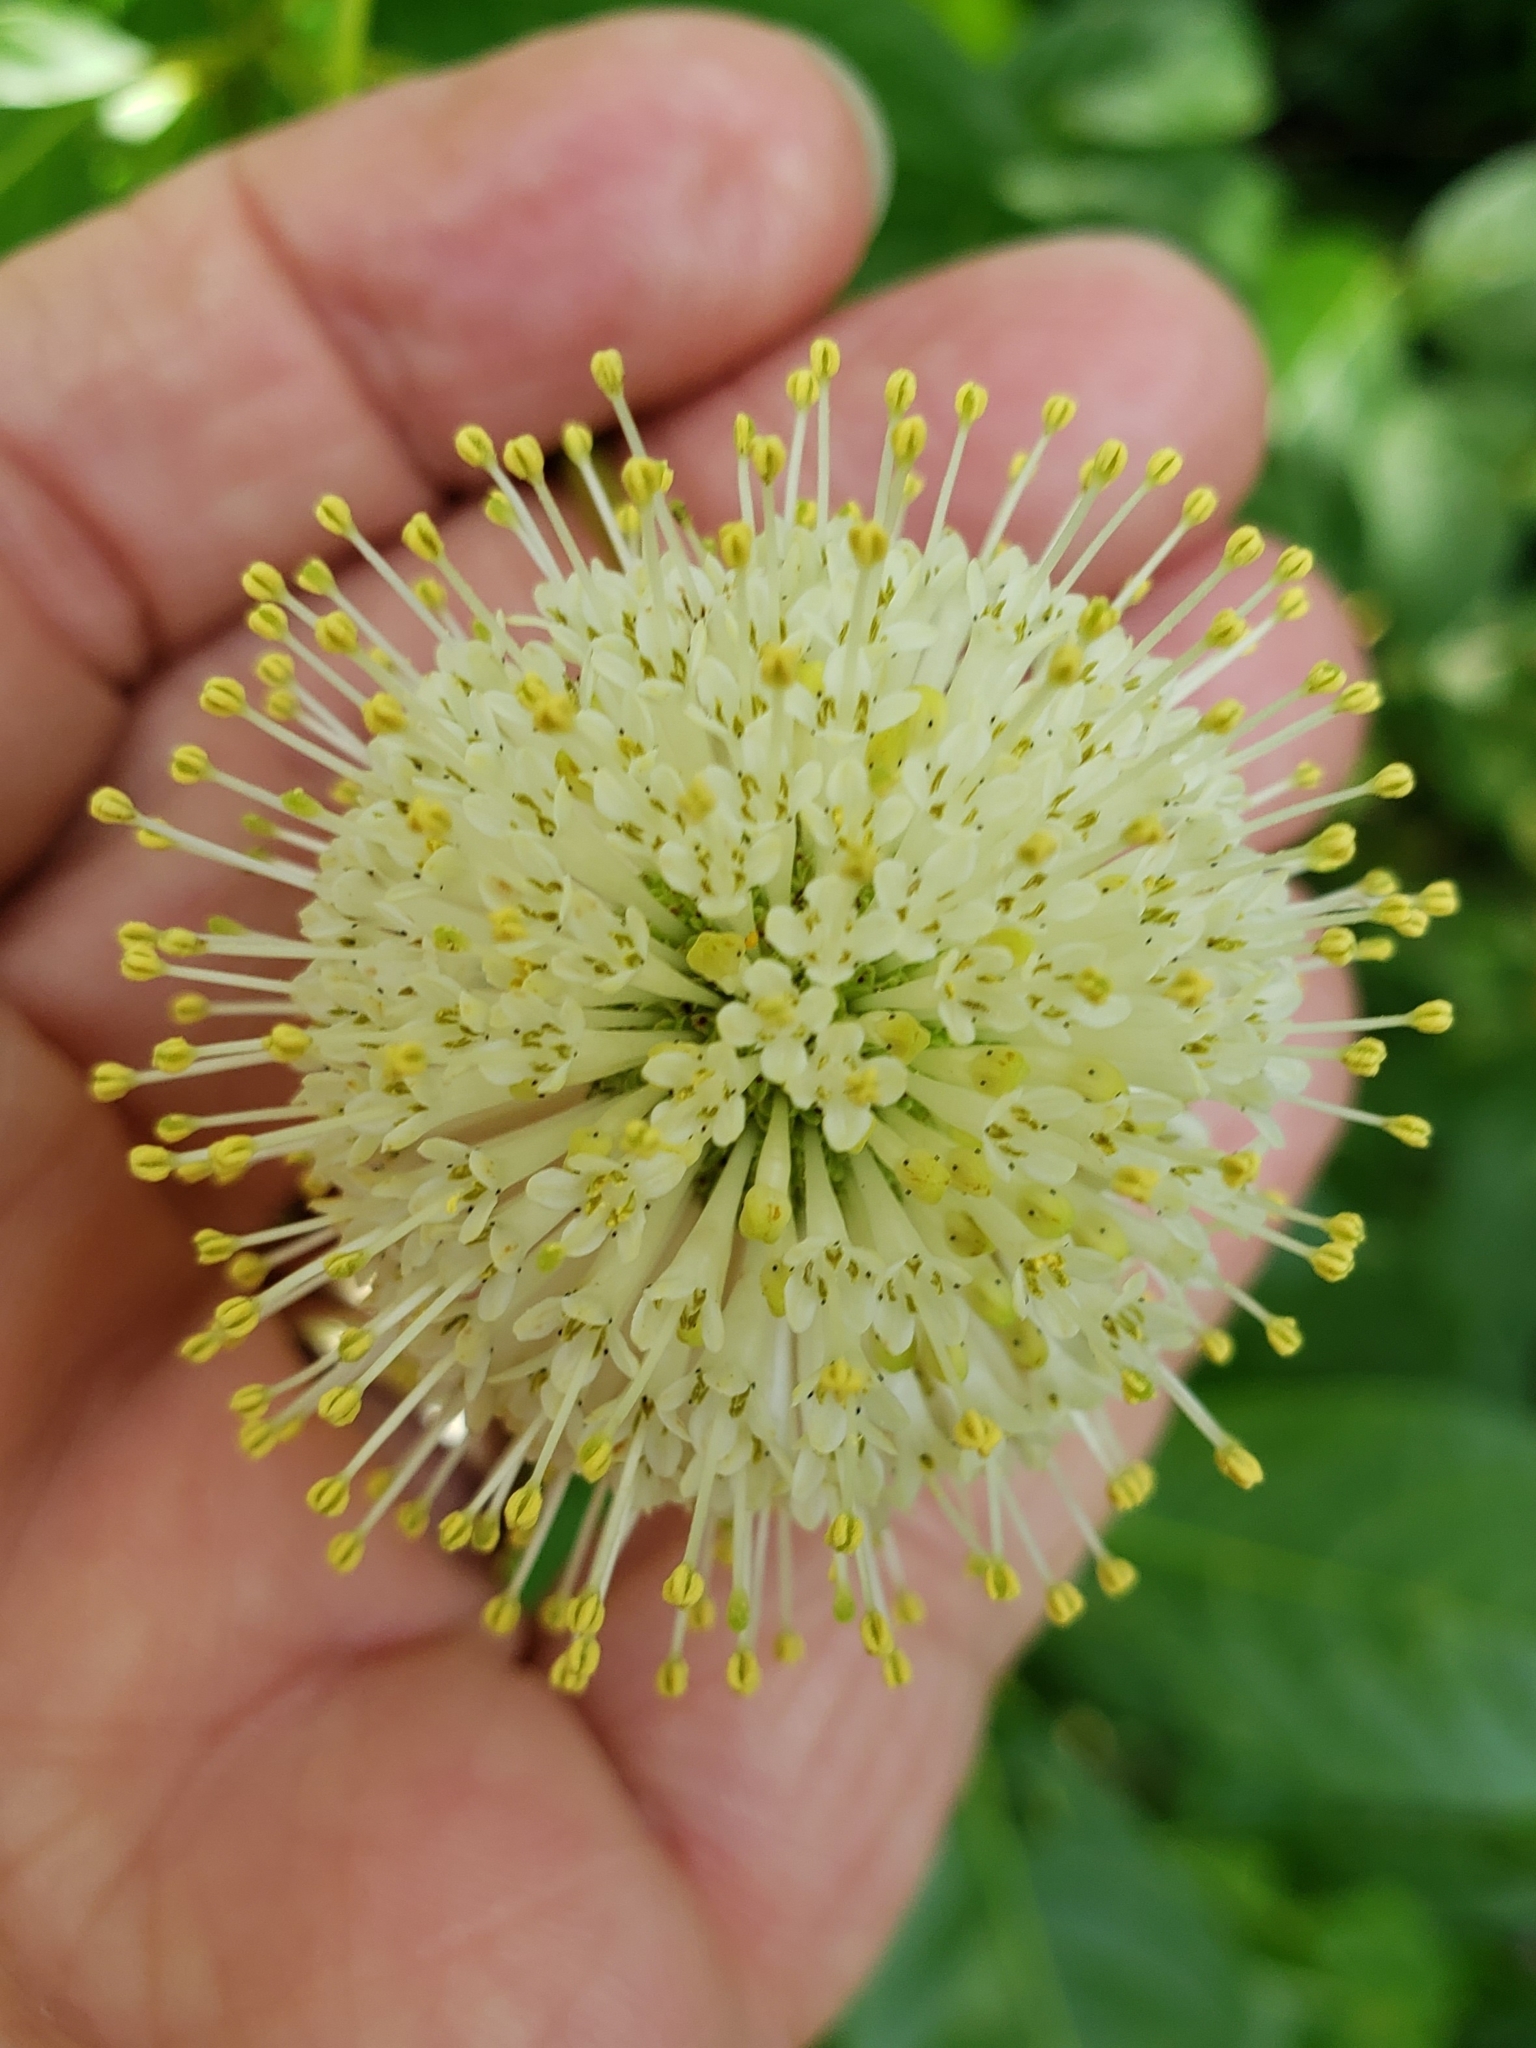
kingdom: Plantae
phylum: Tracheophyta
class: Magnoliopsida
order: Gentianales
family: Rubiaceae
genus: Cephalanthus
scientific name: Cephalanthus occidentalis
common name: Button-willow
